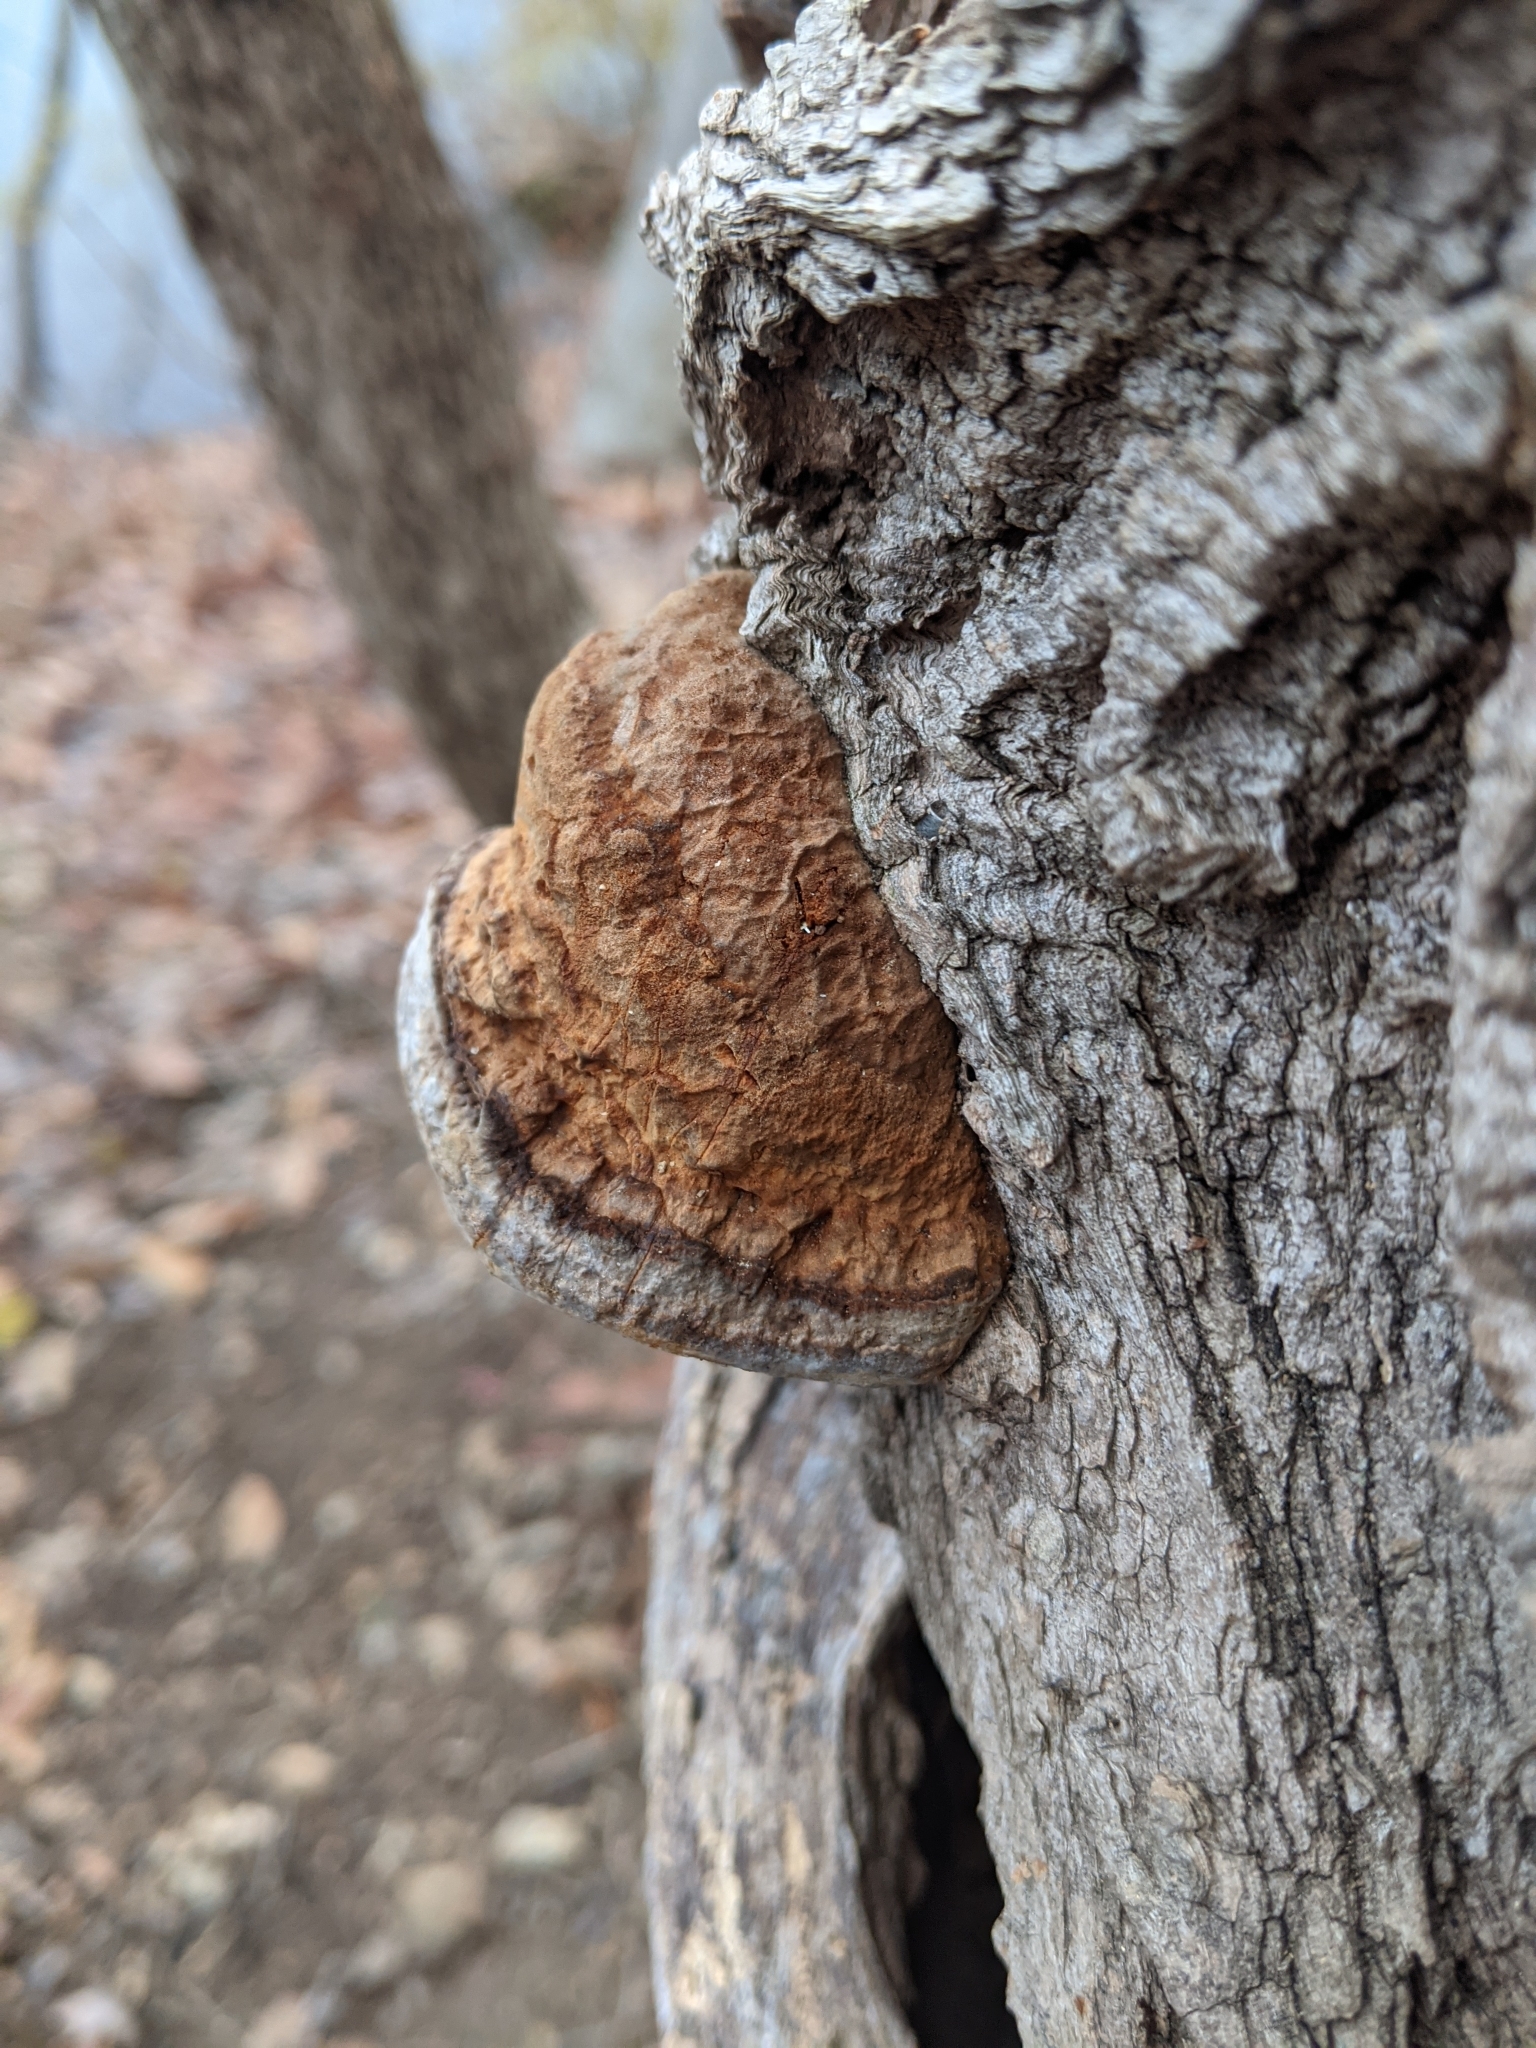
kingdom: Fungi
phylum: Basidiomycota
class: Agaricomycetes
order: Polyporales
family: Polyporaceae
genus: Fomes
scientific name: Fomes fomentarius
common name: Hoof fungus
